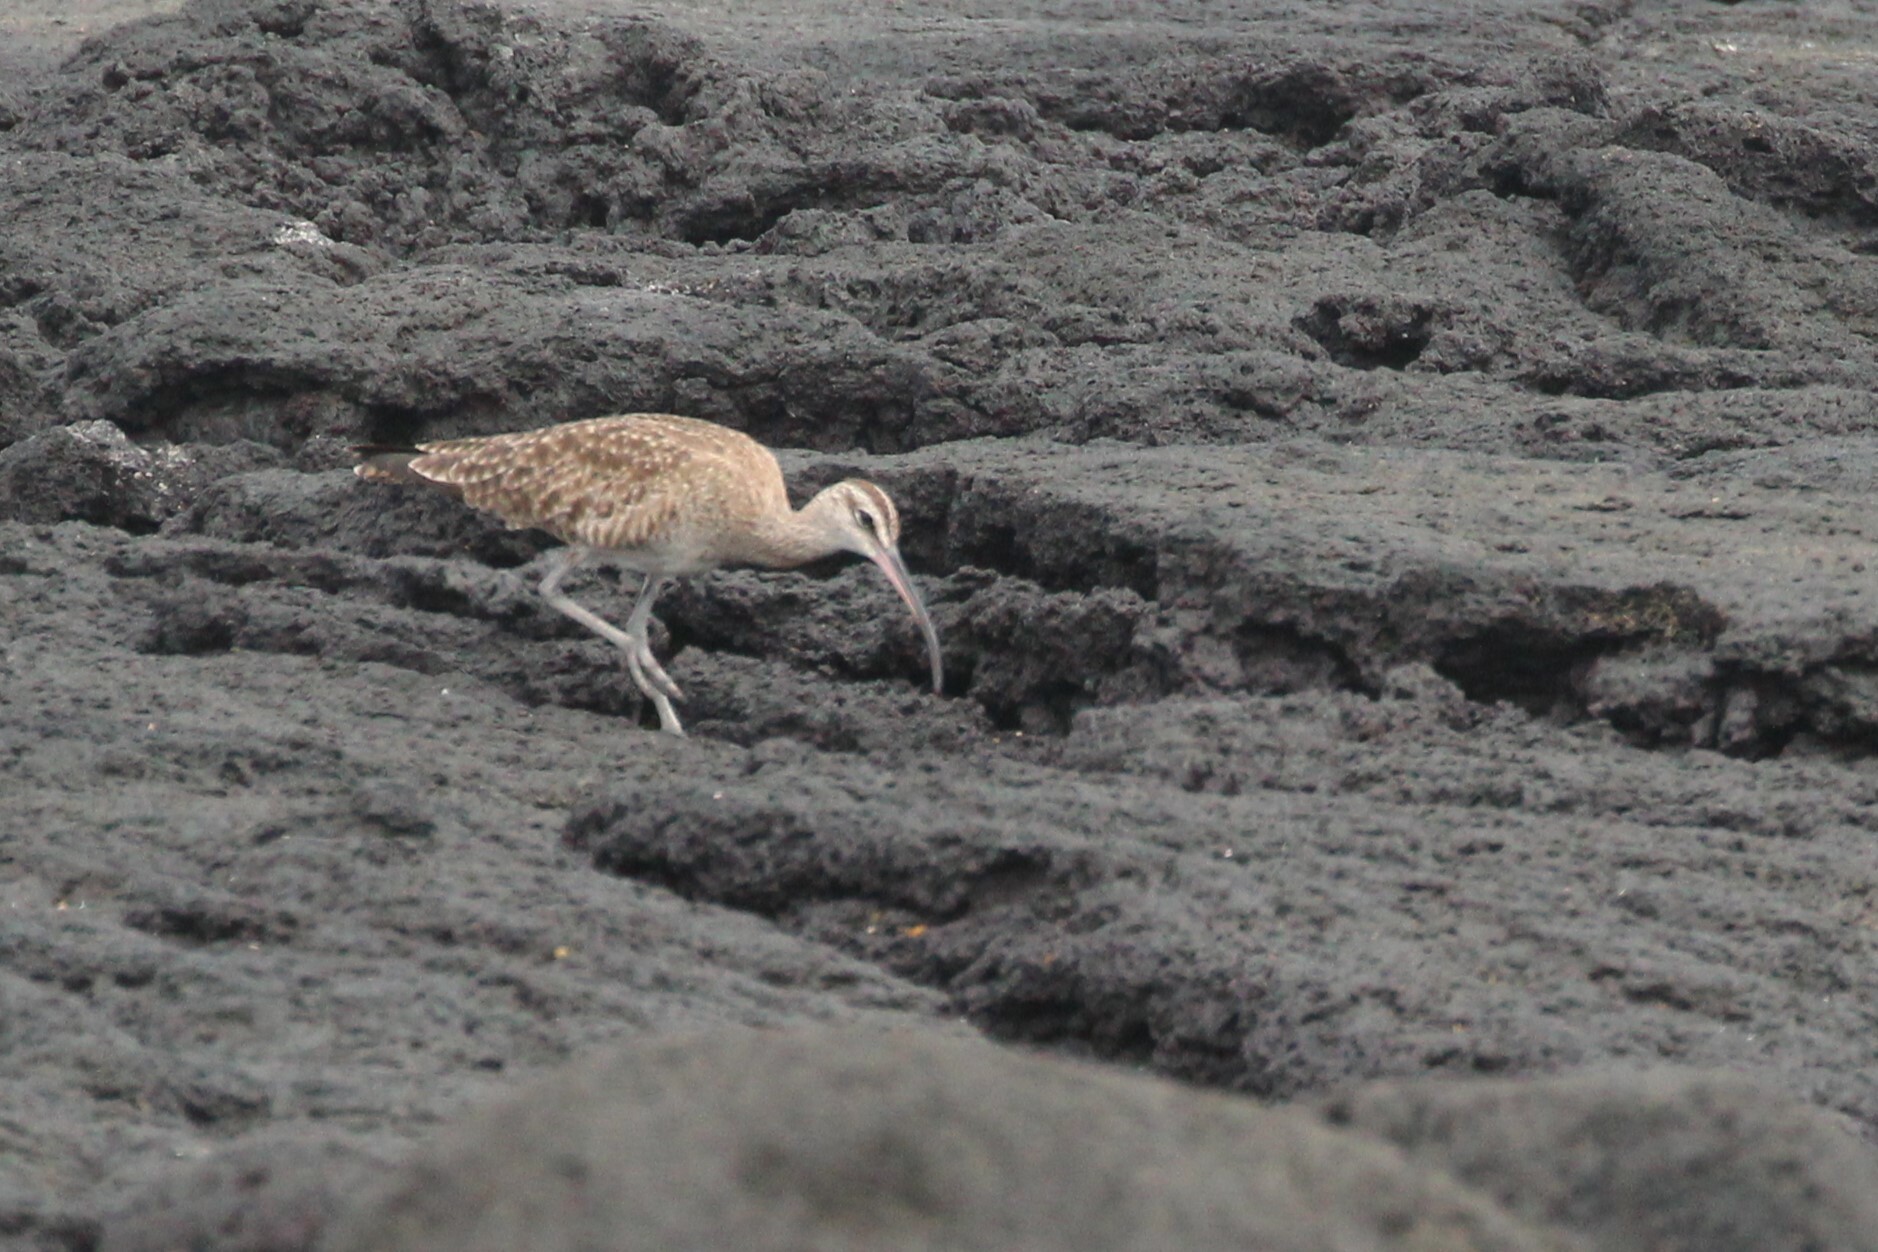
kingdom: Animalia
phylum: Chordata
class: Aves
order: Charadriiformes
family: Scolopacidae
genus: Numenius
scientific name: Numenius phaeopus
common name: Whimbrel
